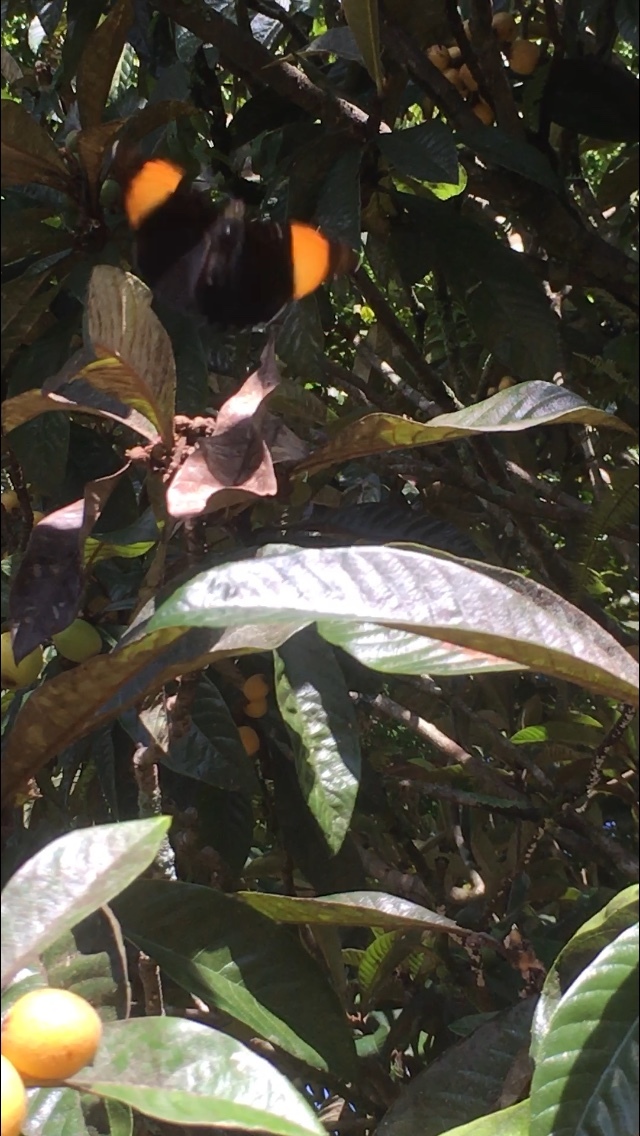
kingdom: Animalia
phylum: Arthropoda
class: Insecta
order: Lepidoptera
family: Nymphalidae
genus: Limenitis
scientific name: Limenitis melanthe
